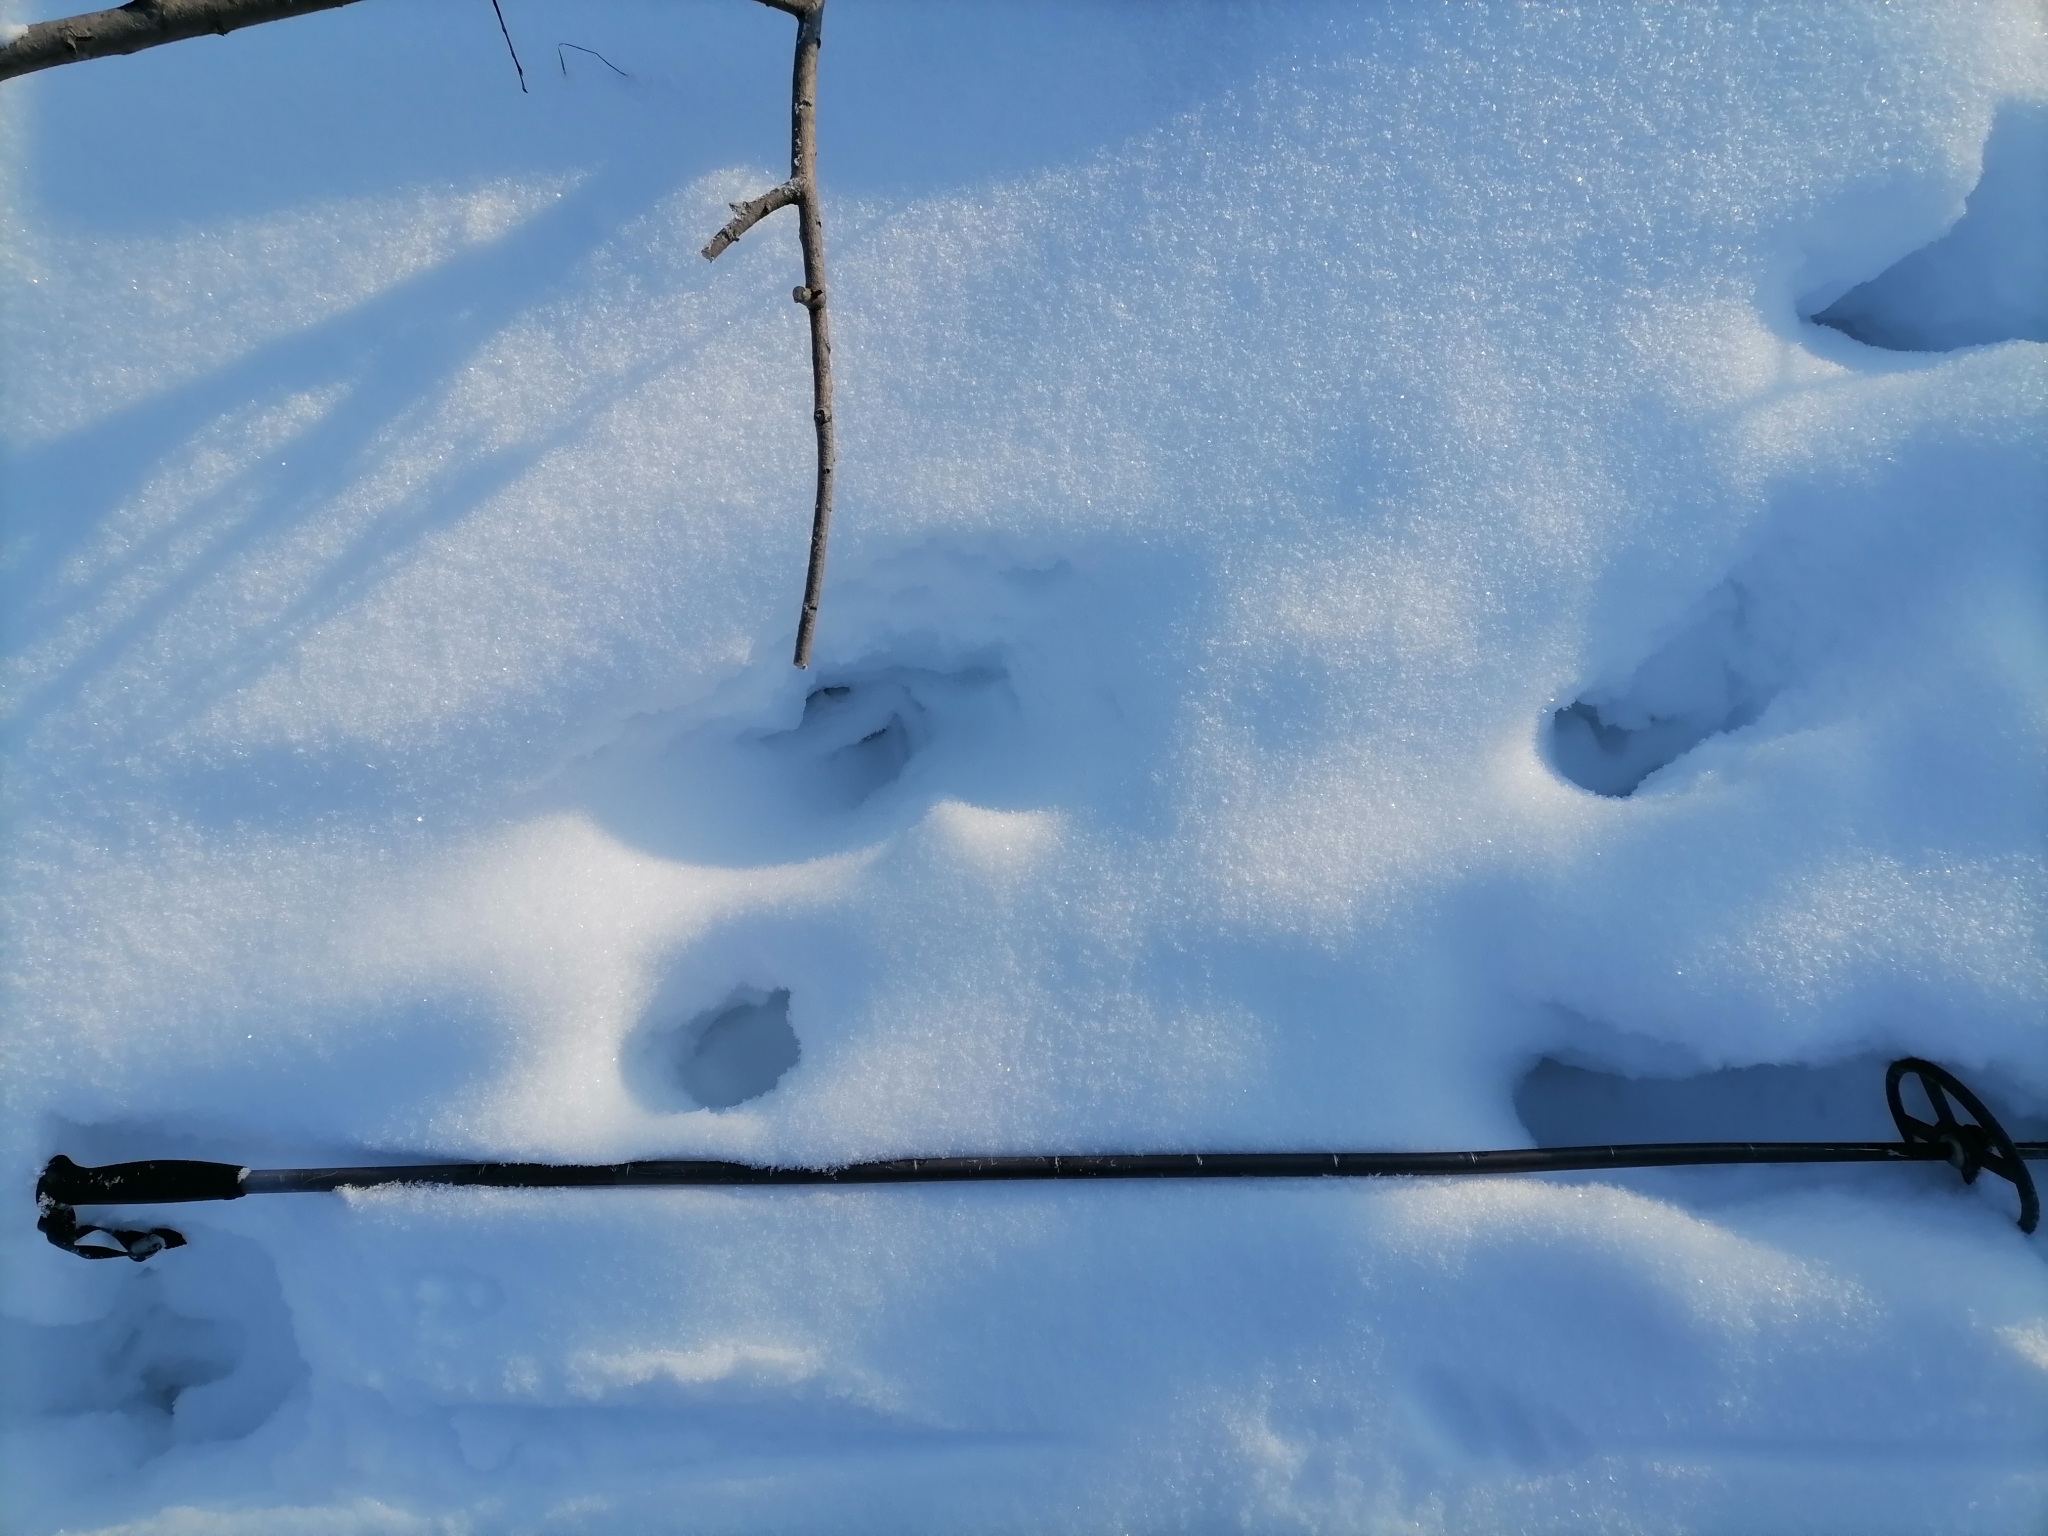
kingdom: Animalia
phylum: Chordata
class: Mammalia
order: Artiodactyla
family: Cervidae
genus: Alces
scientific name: Alces alces
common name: Moose
